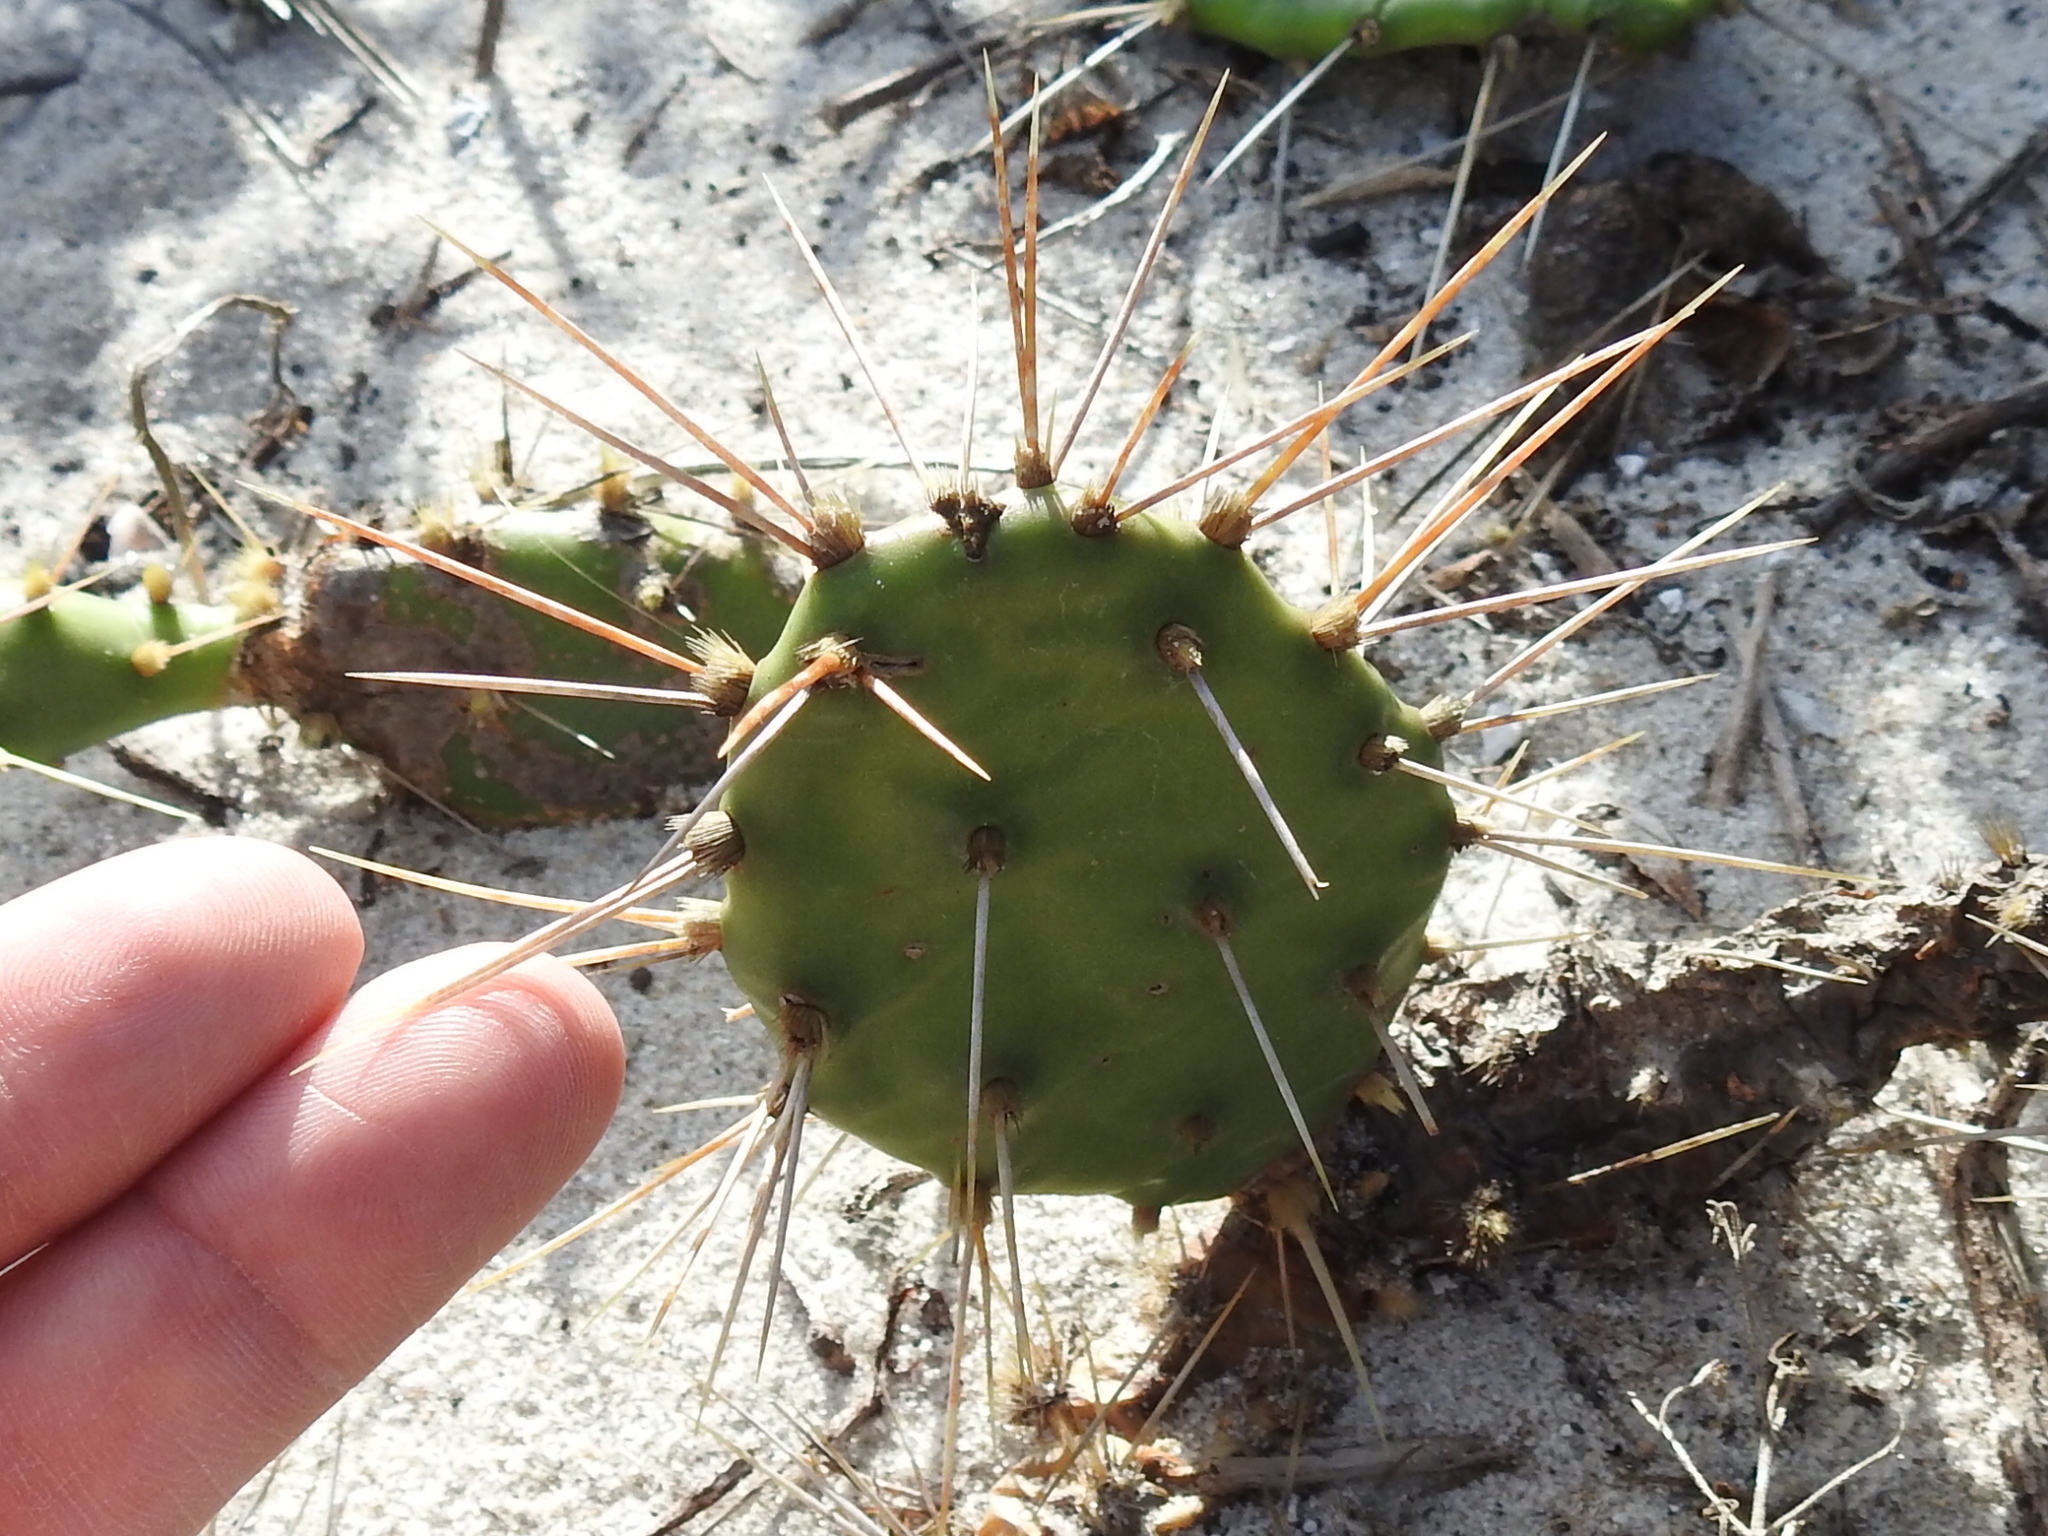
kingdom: Plantae
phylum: Tracheophyta
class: Magnoliopsida
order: Caryophyllales
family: Cactaceae
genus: Opuntia
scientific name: Opuntia austrina
